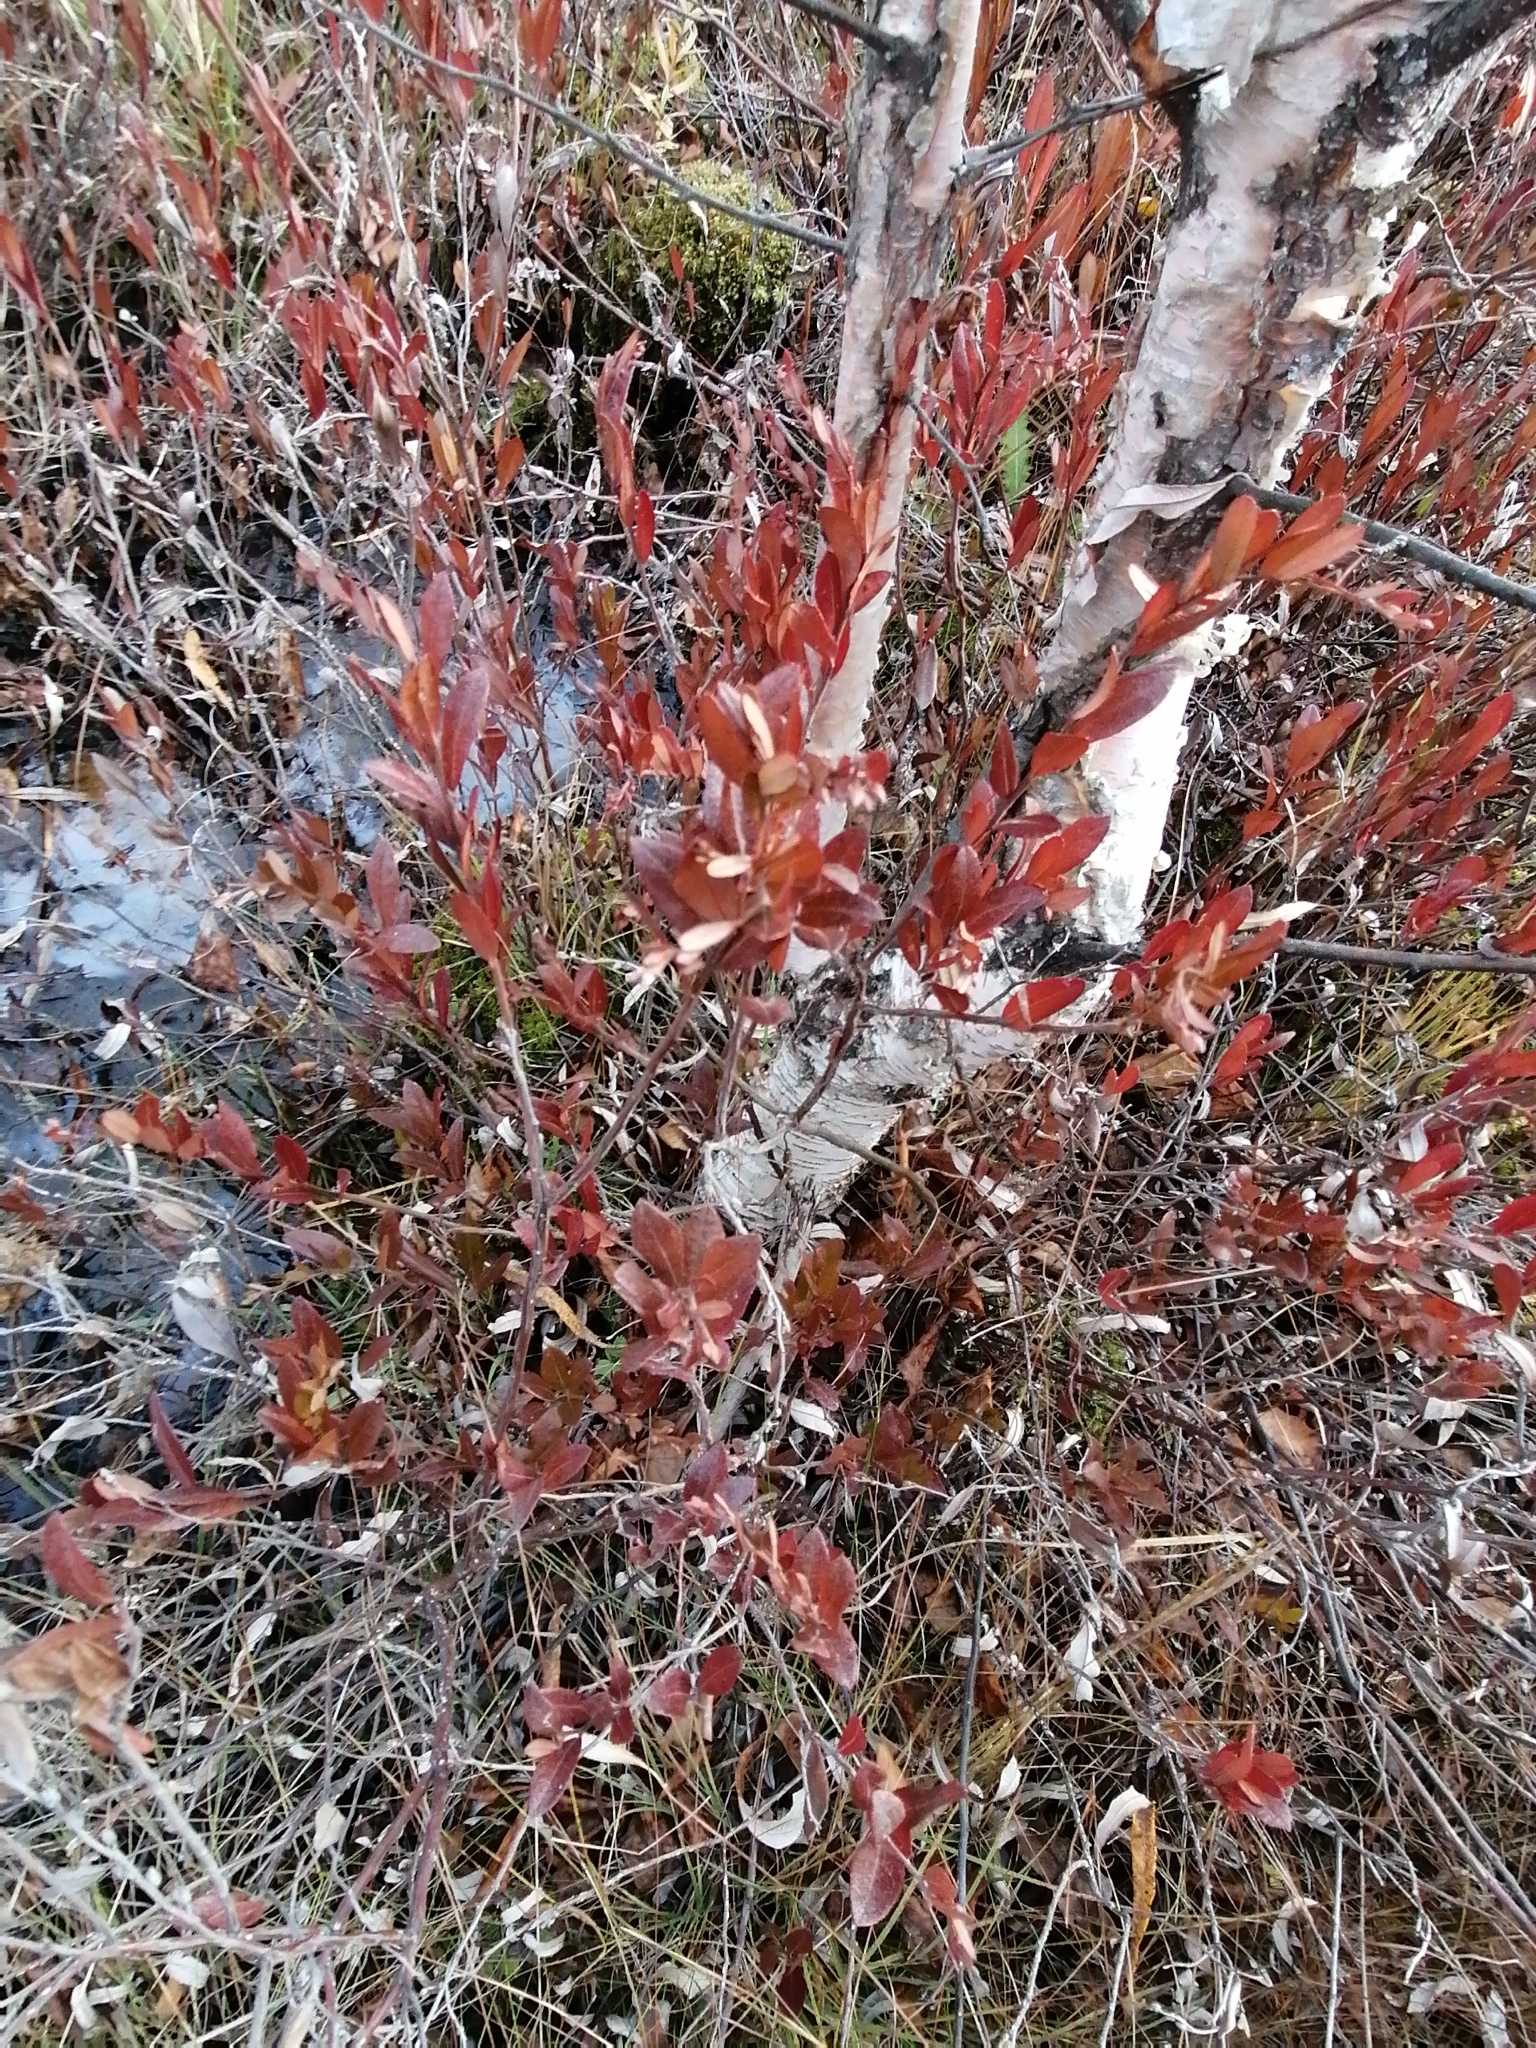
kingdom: Plantae
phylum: Tracheophyta
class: Magnoliopsida
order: Ericales
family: Ericaceae
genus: Chamaedaphne
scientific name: Chamaedaphne calyculata
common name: Leatherleaf
